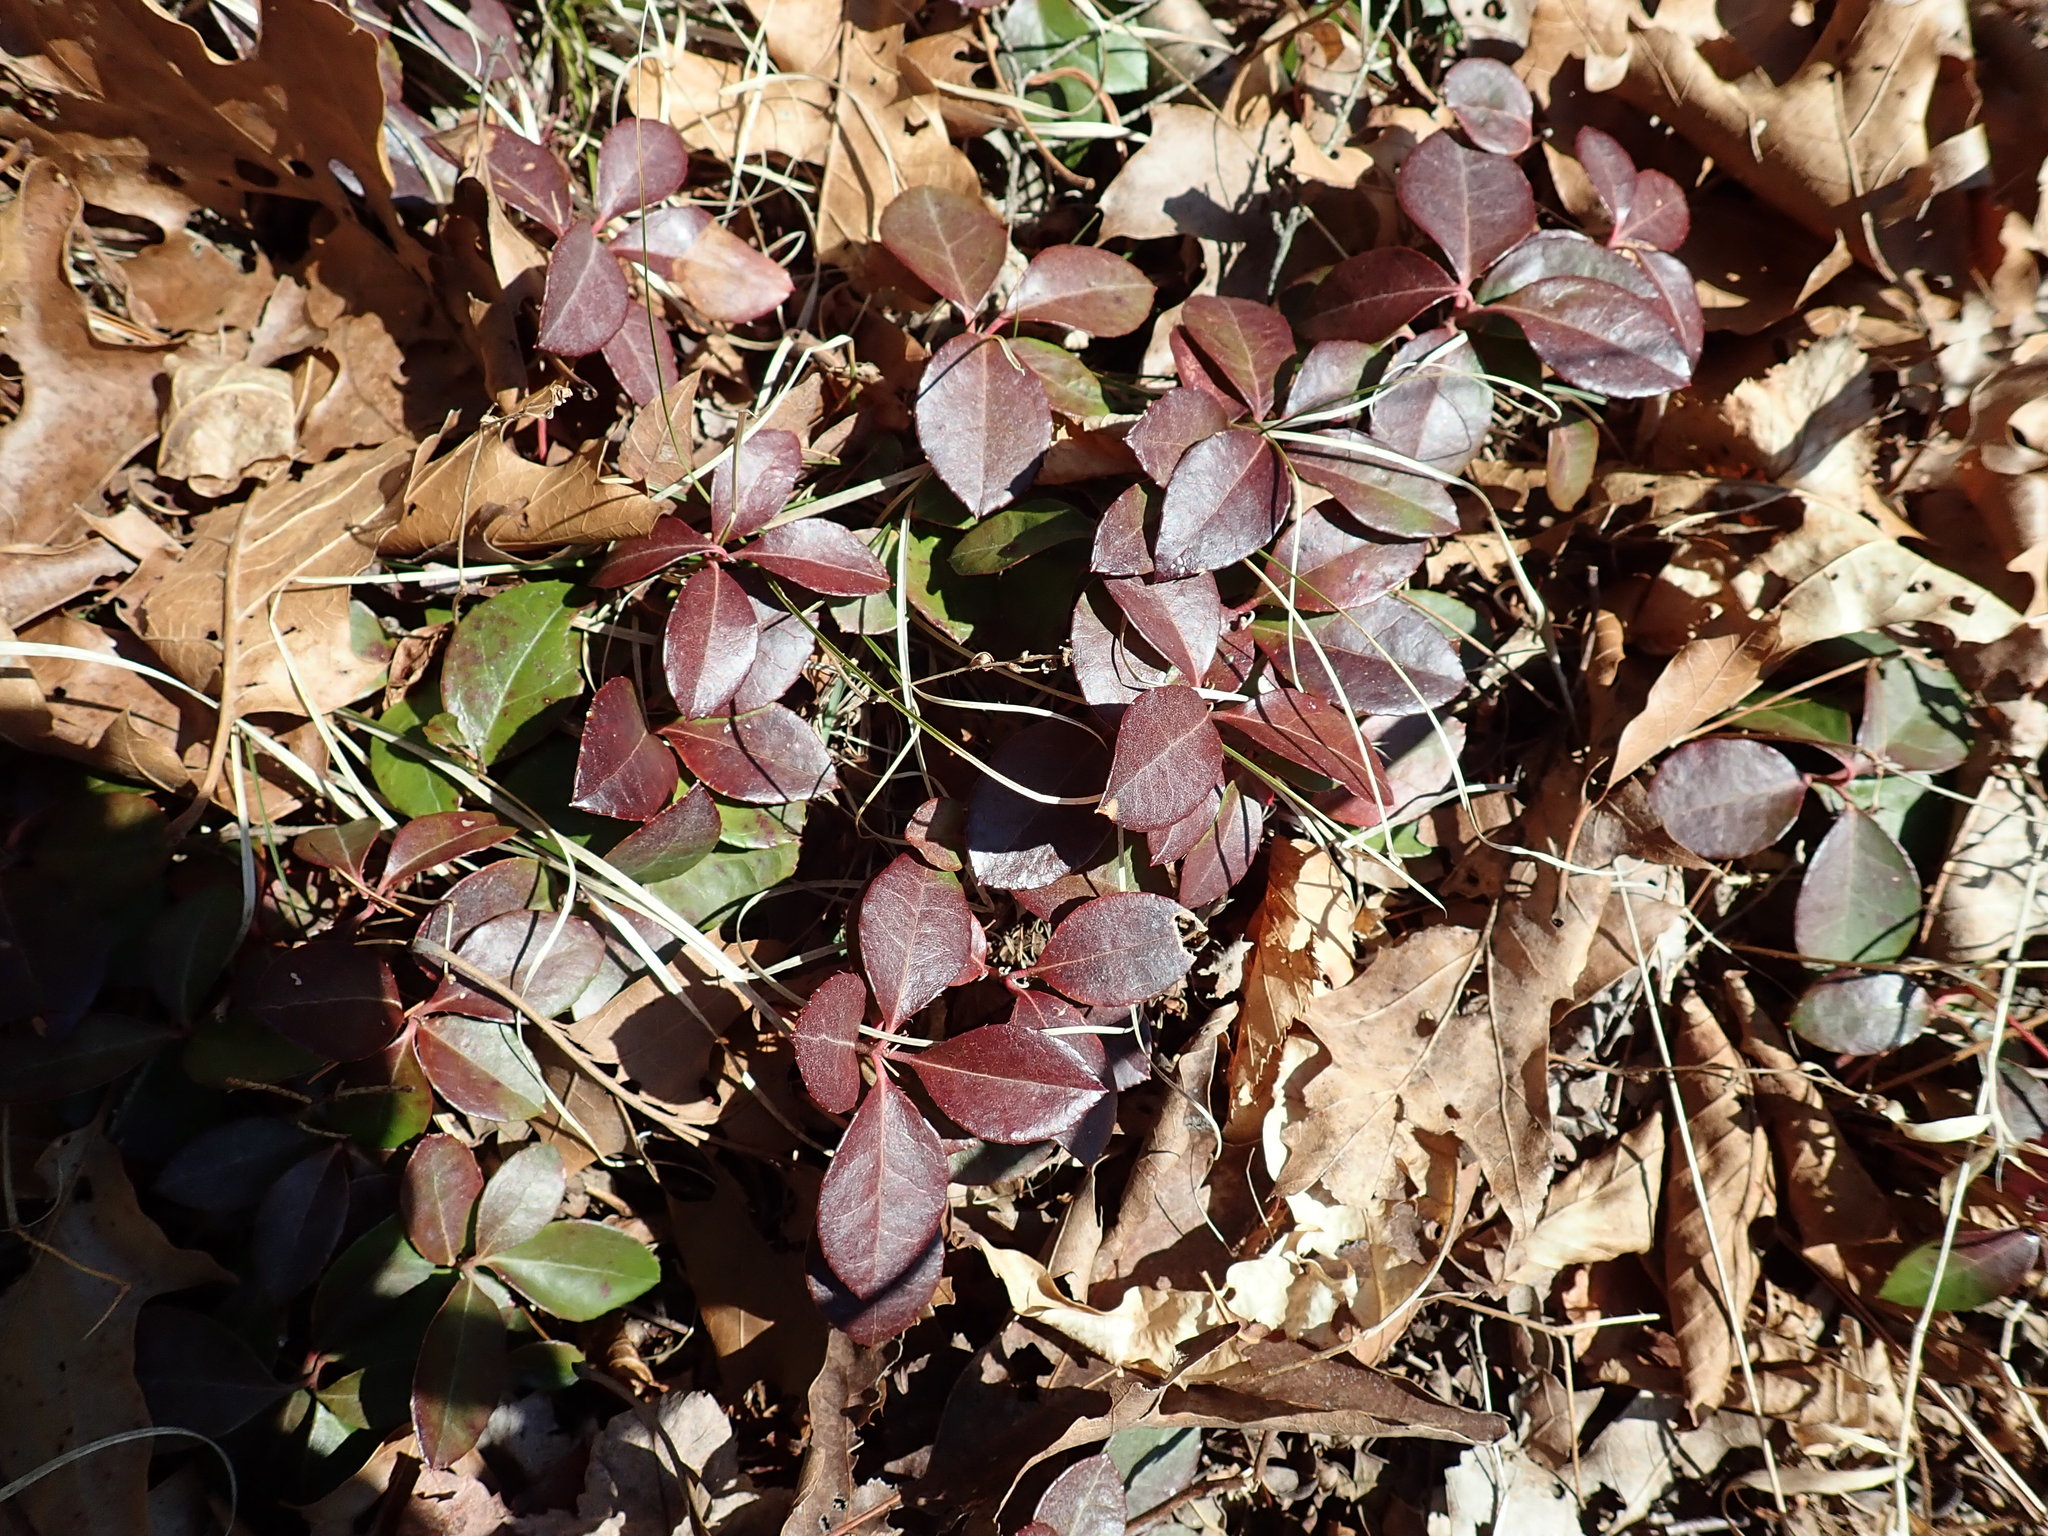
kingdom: Plantae
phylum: Tracheophyta
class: Magnoliopsida
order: Ericales
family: Ericaceae
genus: Gaultheria
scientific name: Gaultheria procumbens
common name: Checkerberry
